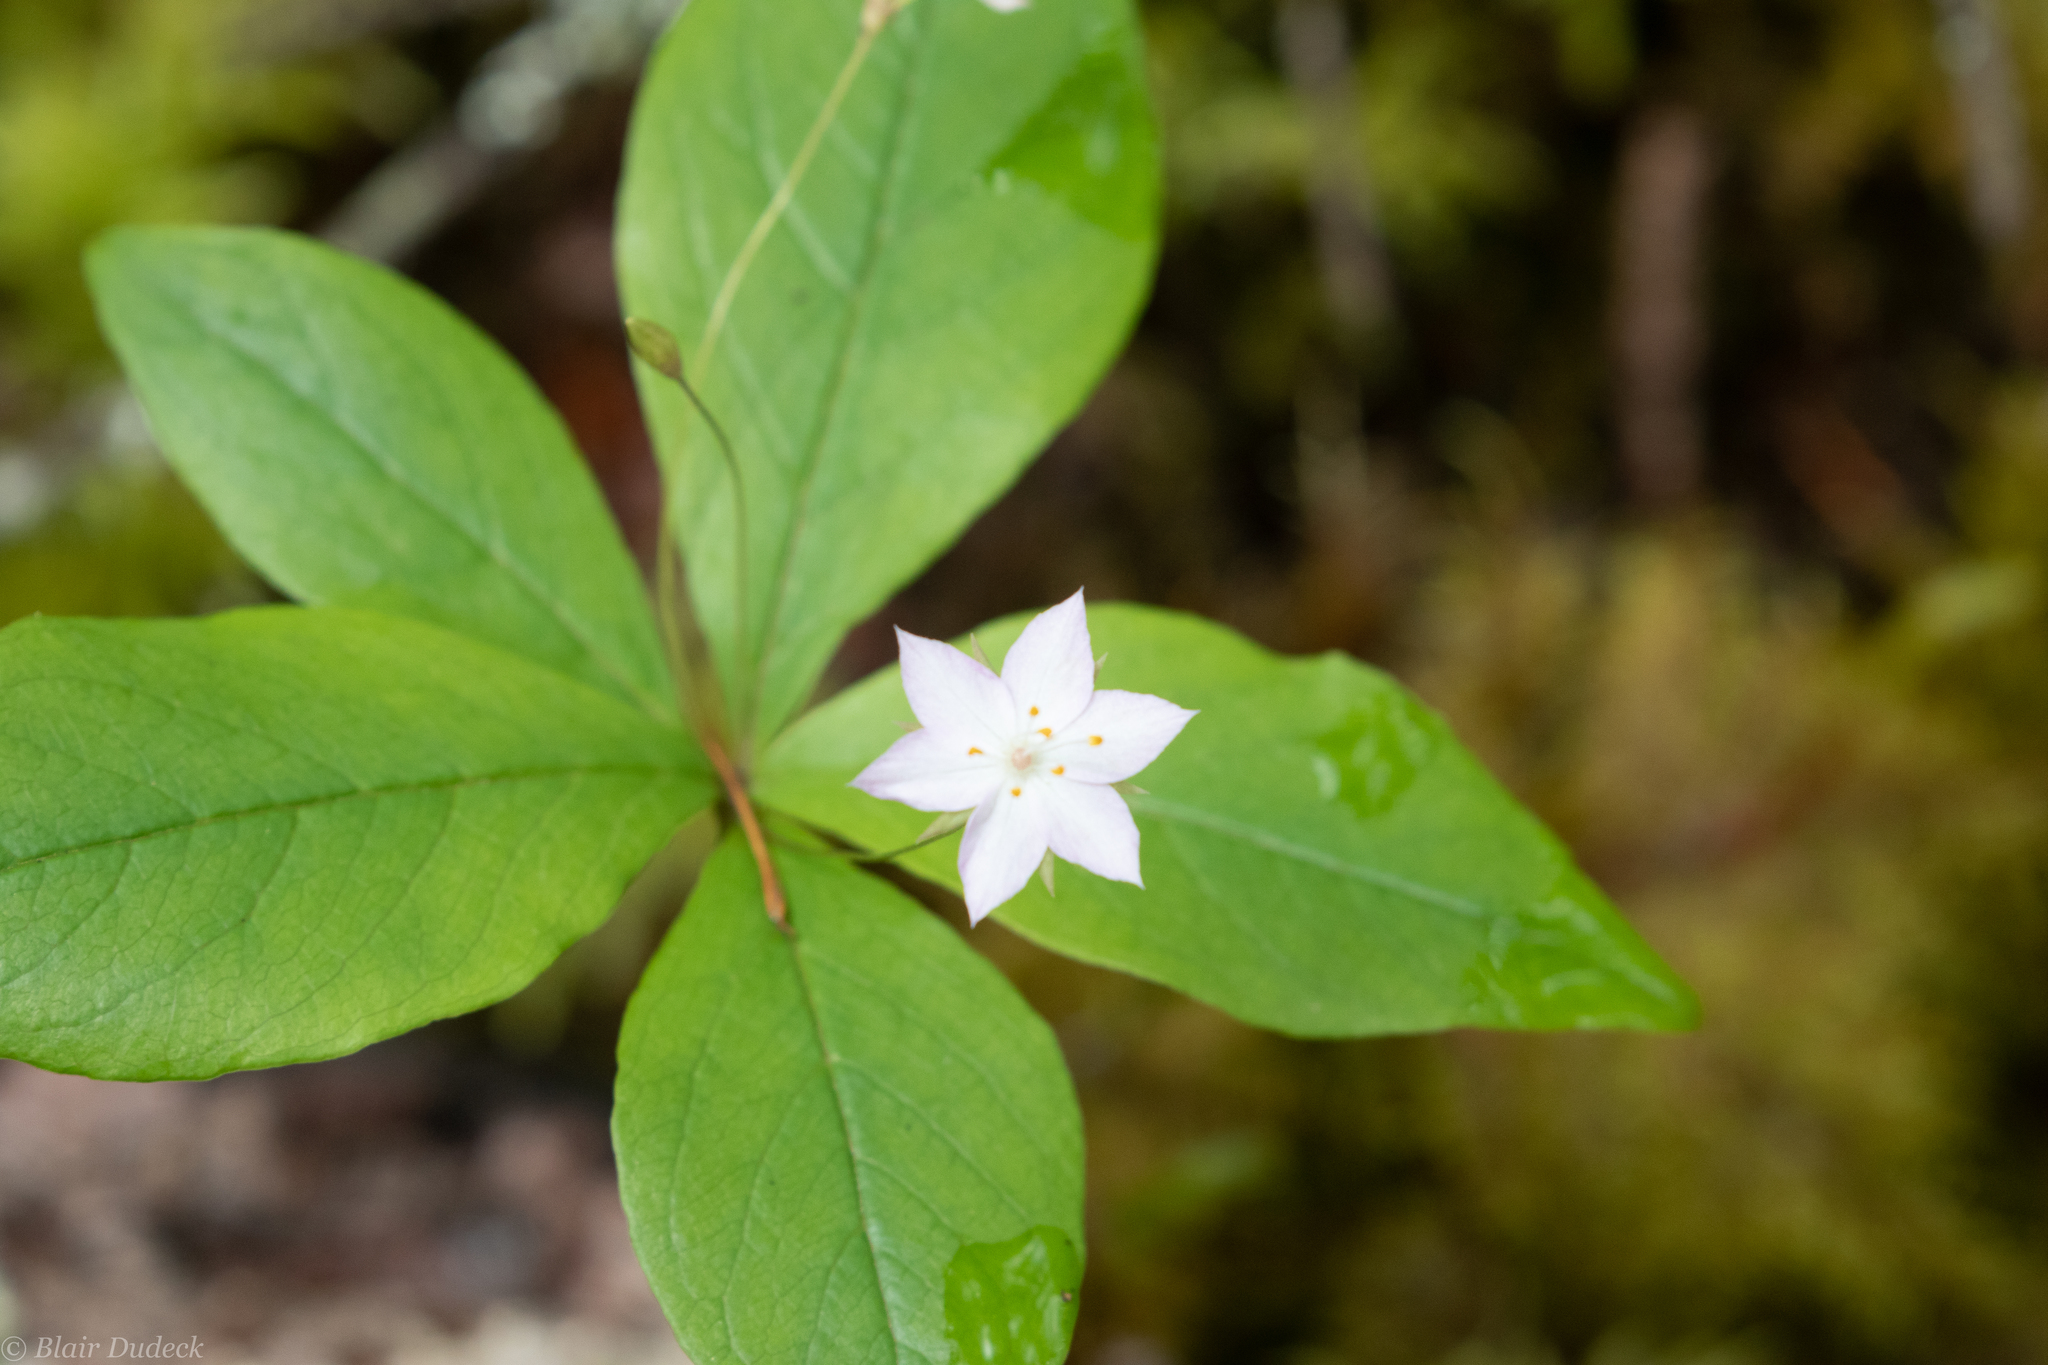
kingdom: Plantae
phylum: Tracheophyta
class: Magnoliopsida
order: Ericales
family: Primulaceae
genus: Lysimachia
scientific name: Lysimachia latifolia
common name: Pacific starflower
